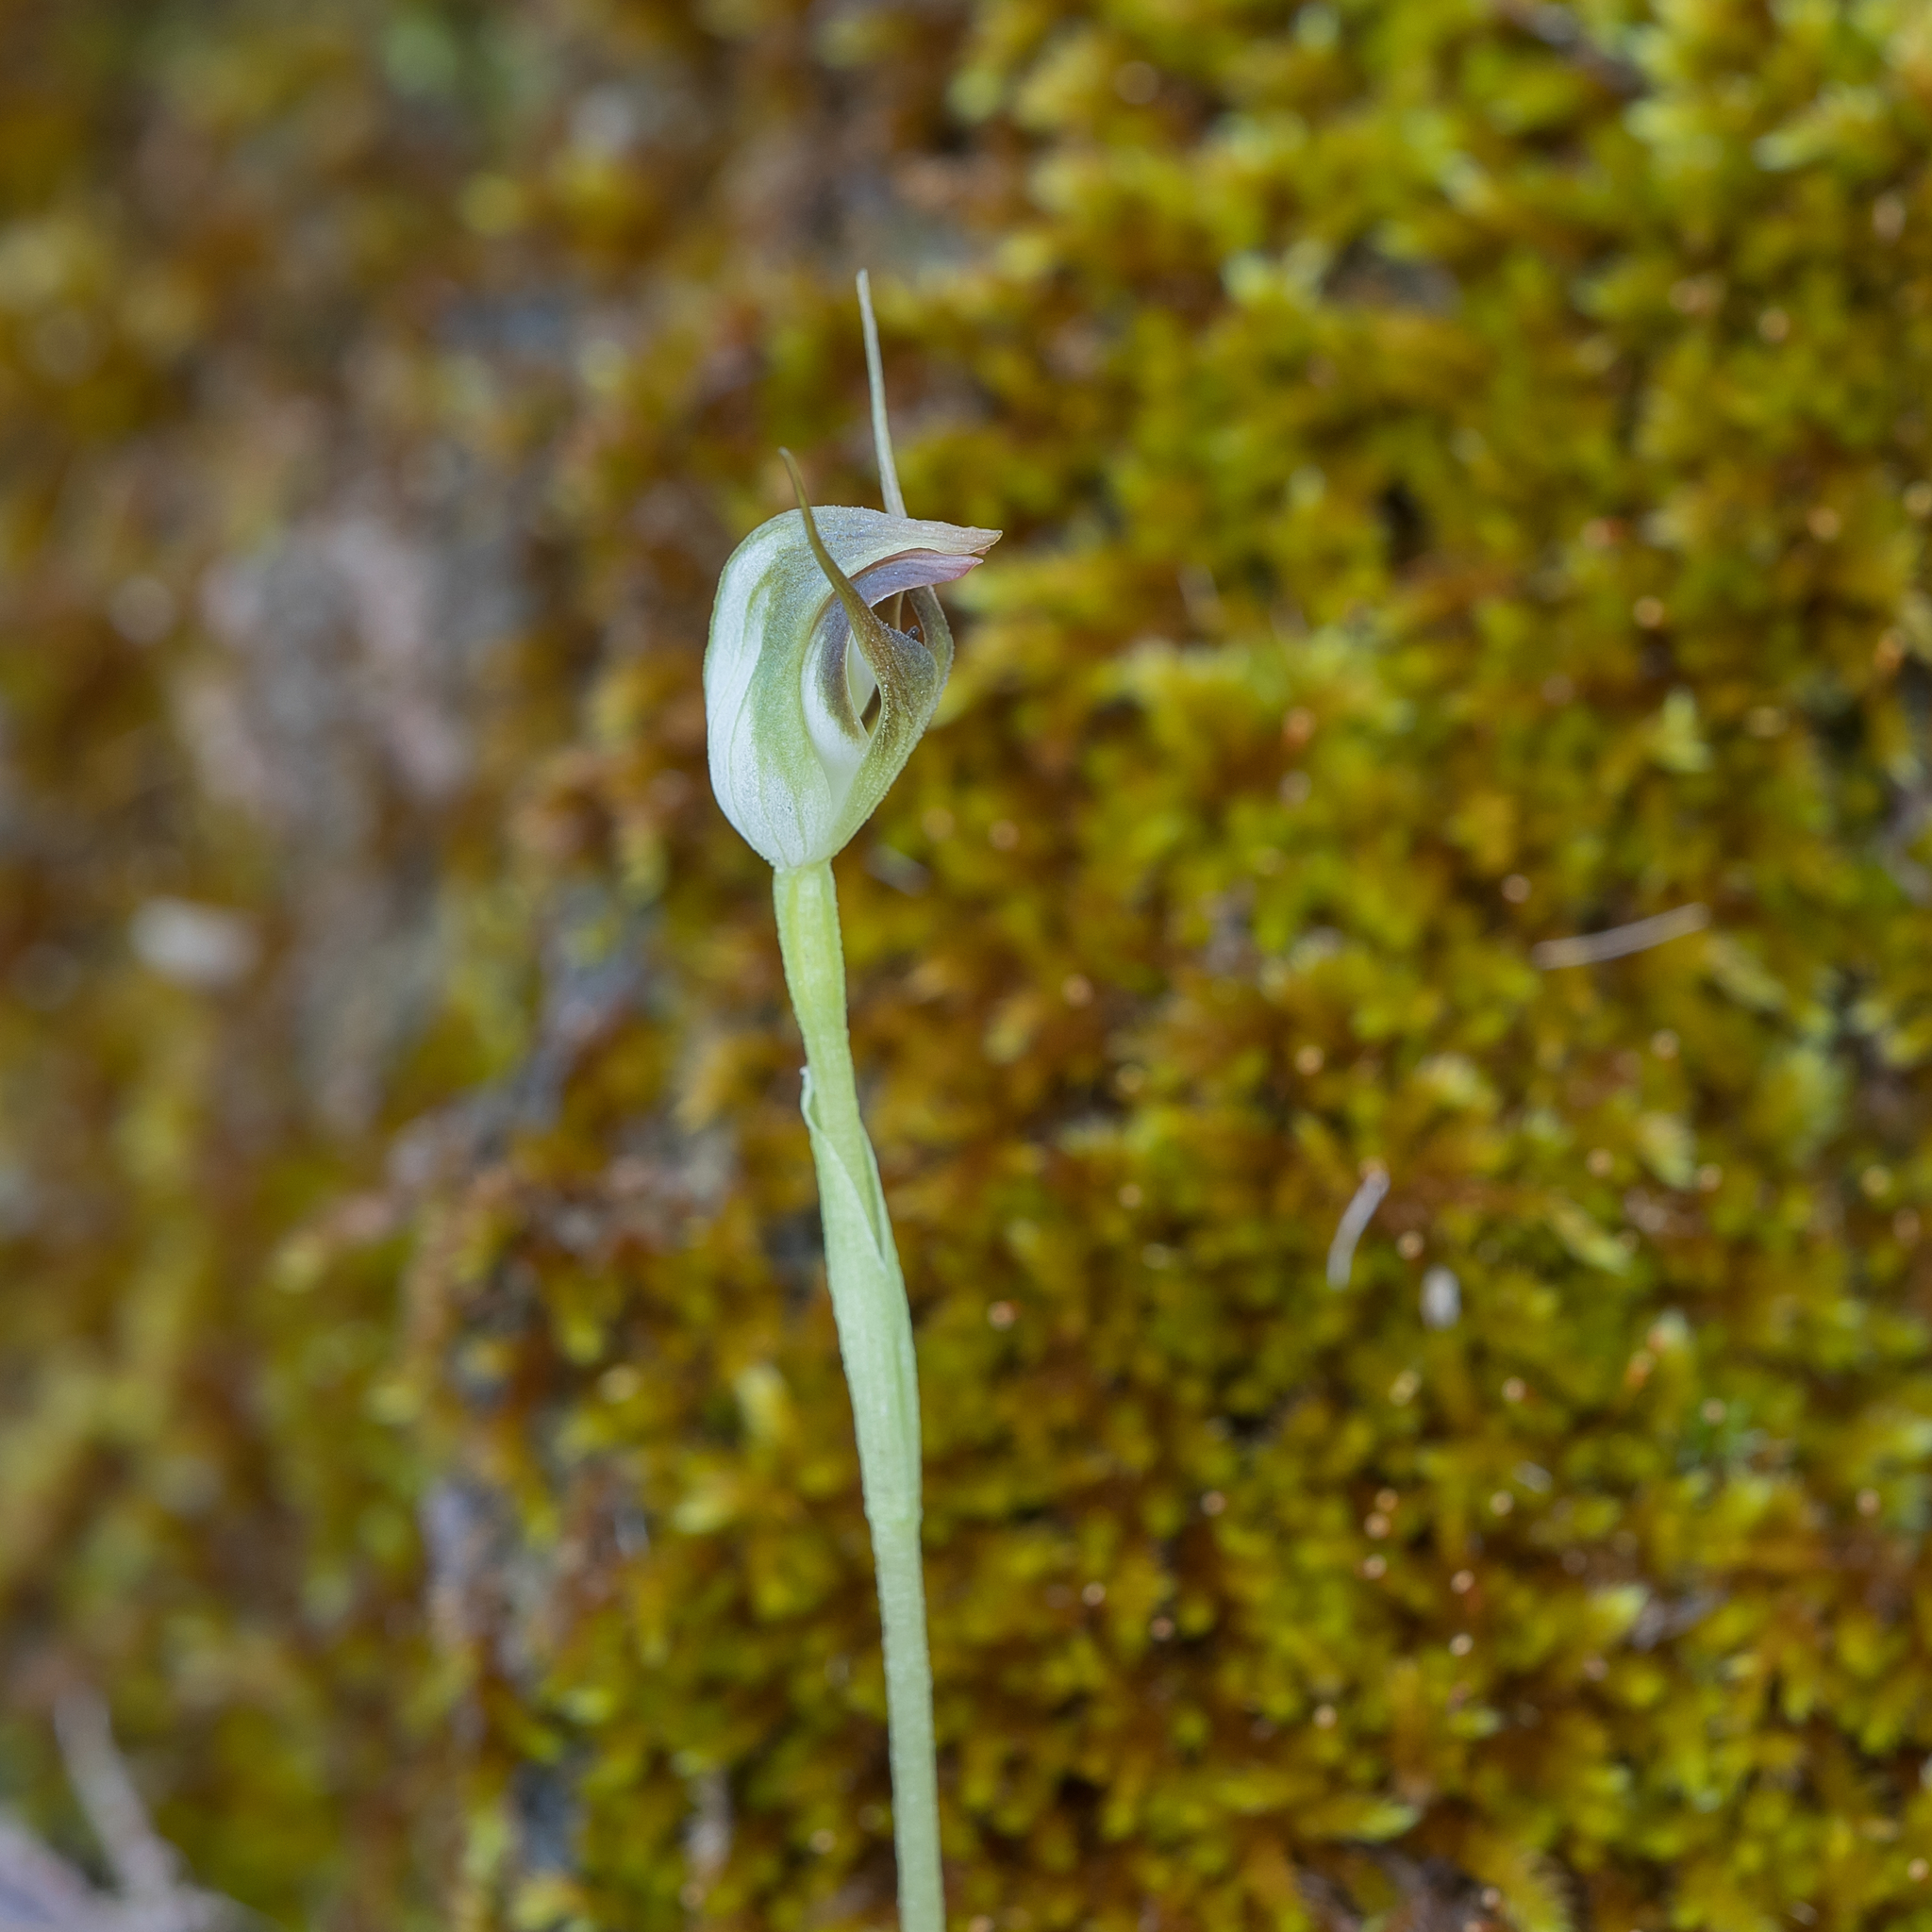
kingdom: Plantae
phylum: Tracheophyta
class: Liliopsida
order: Asparagales
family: Orchidaceae
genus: Pterostylis
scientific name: Pterostylis pedunculata
